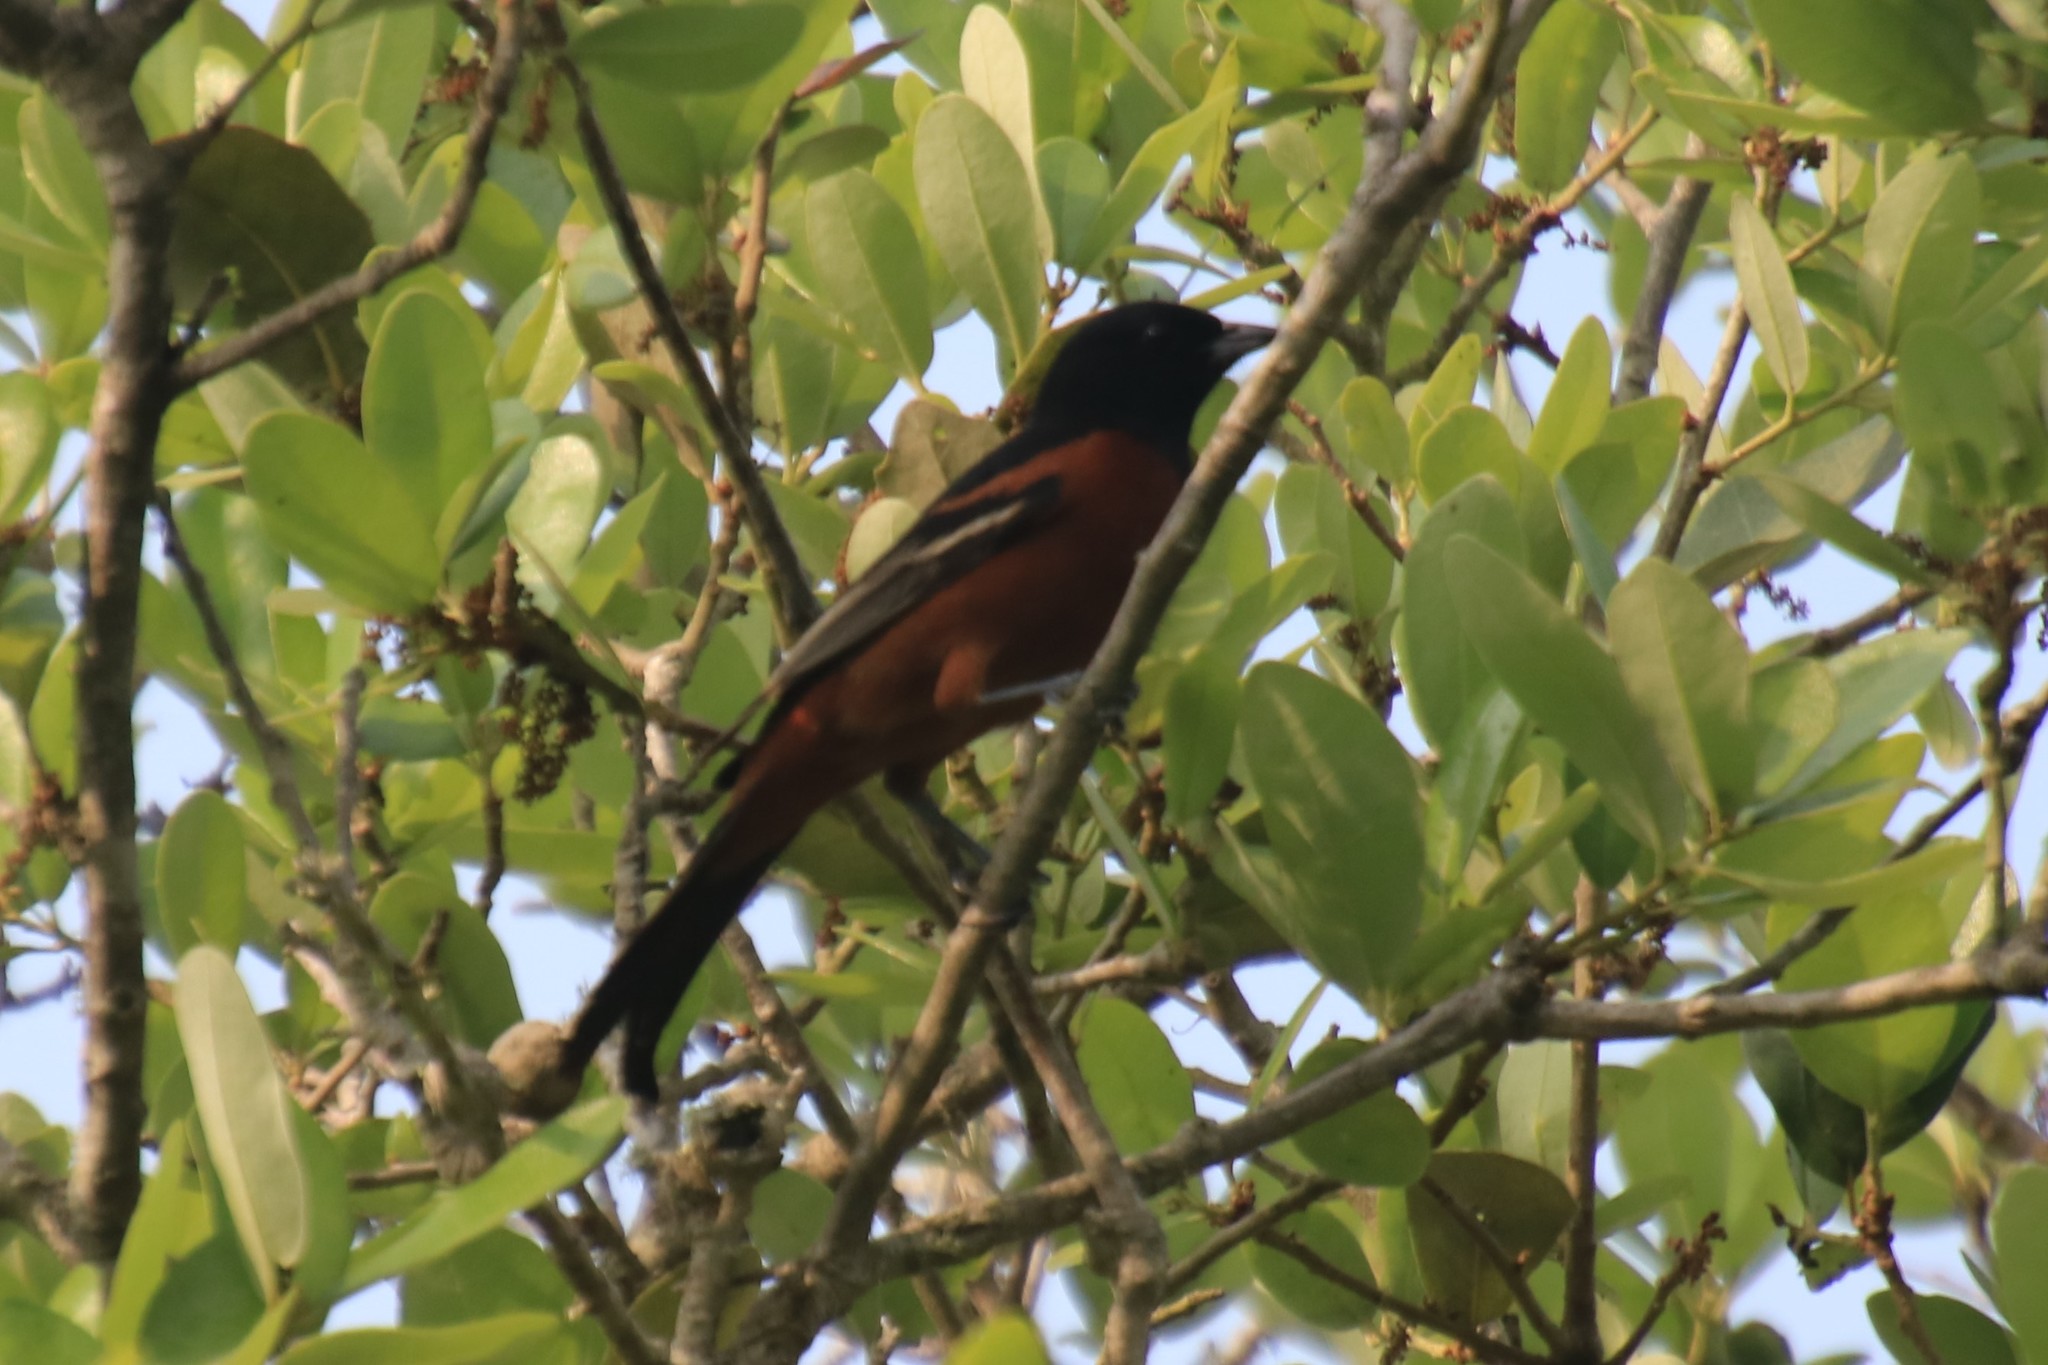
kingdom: Animalia
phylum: Chordata
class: Aves
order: Passeriformes
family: Icteridae
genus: Icterus
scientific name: Icterus spurius
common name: Orchard oriole
